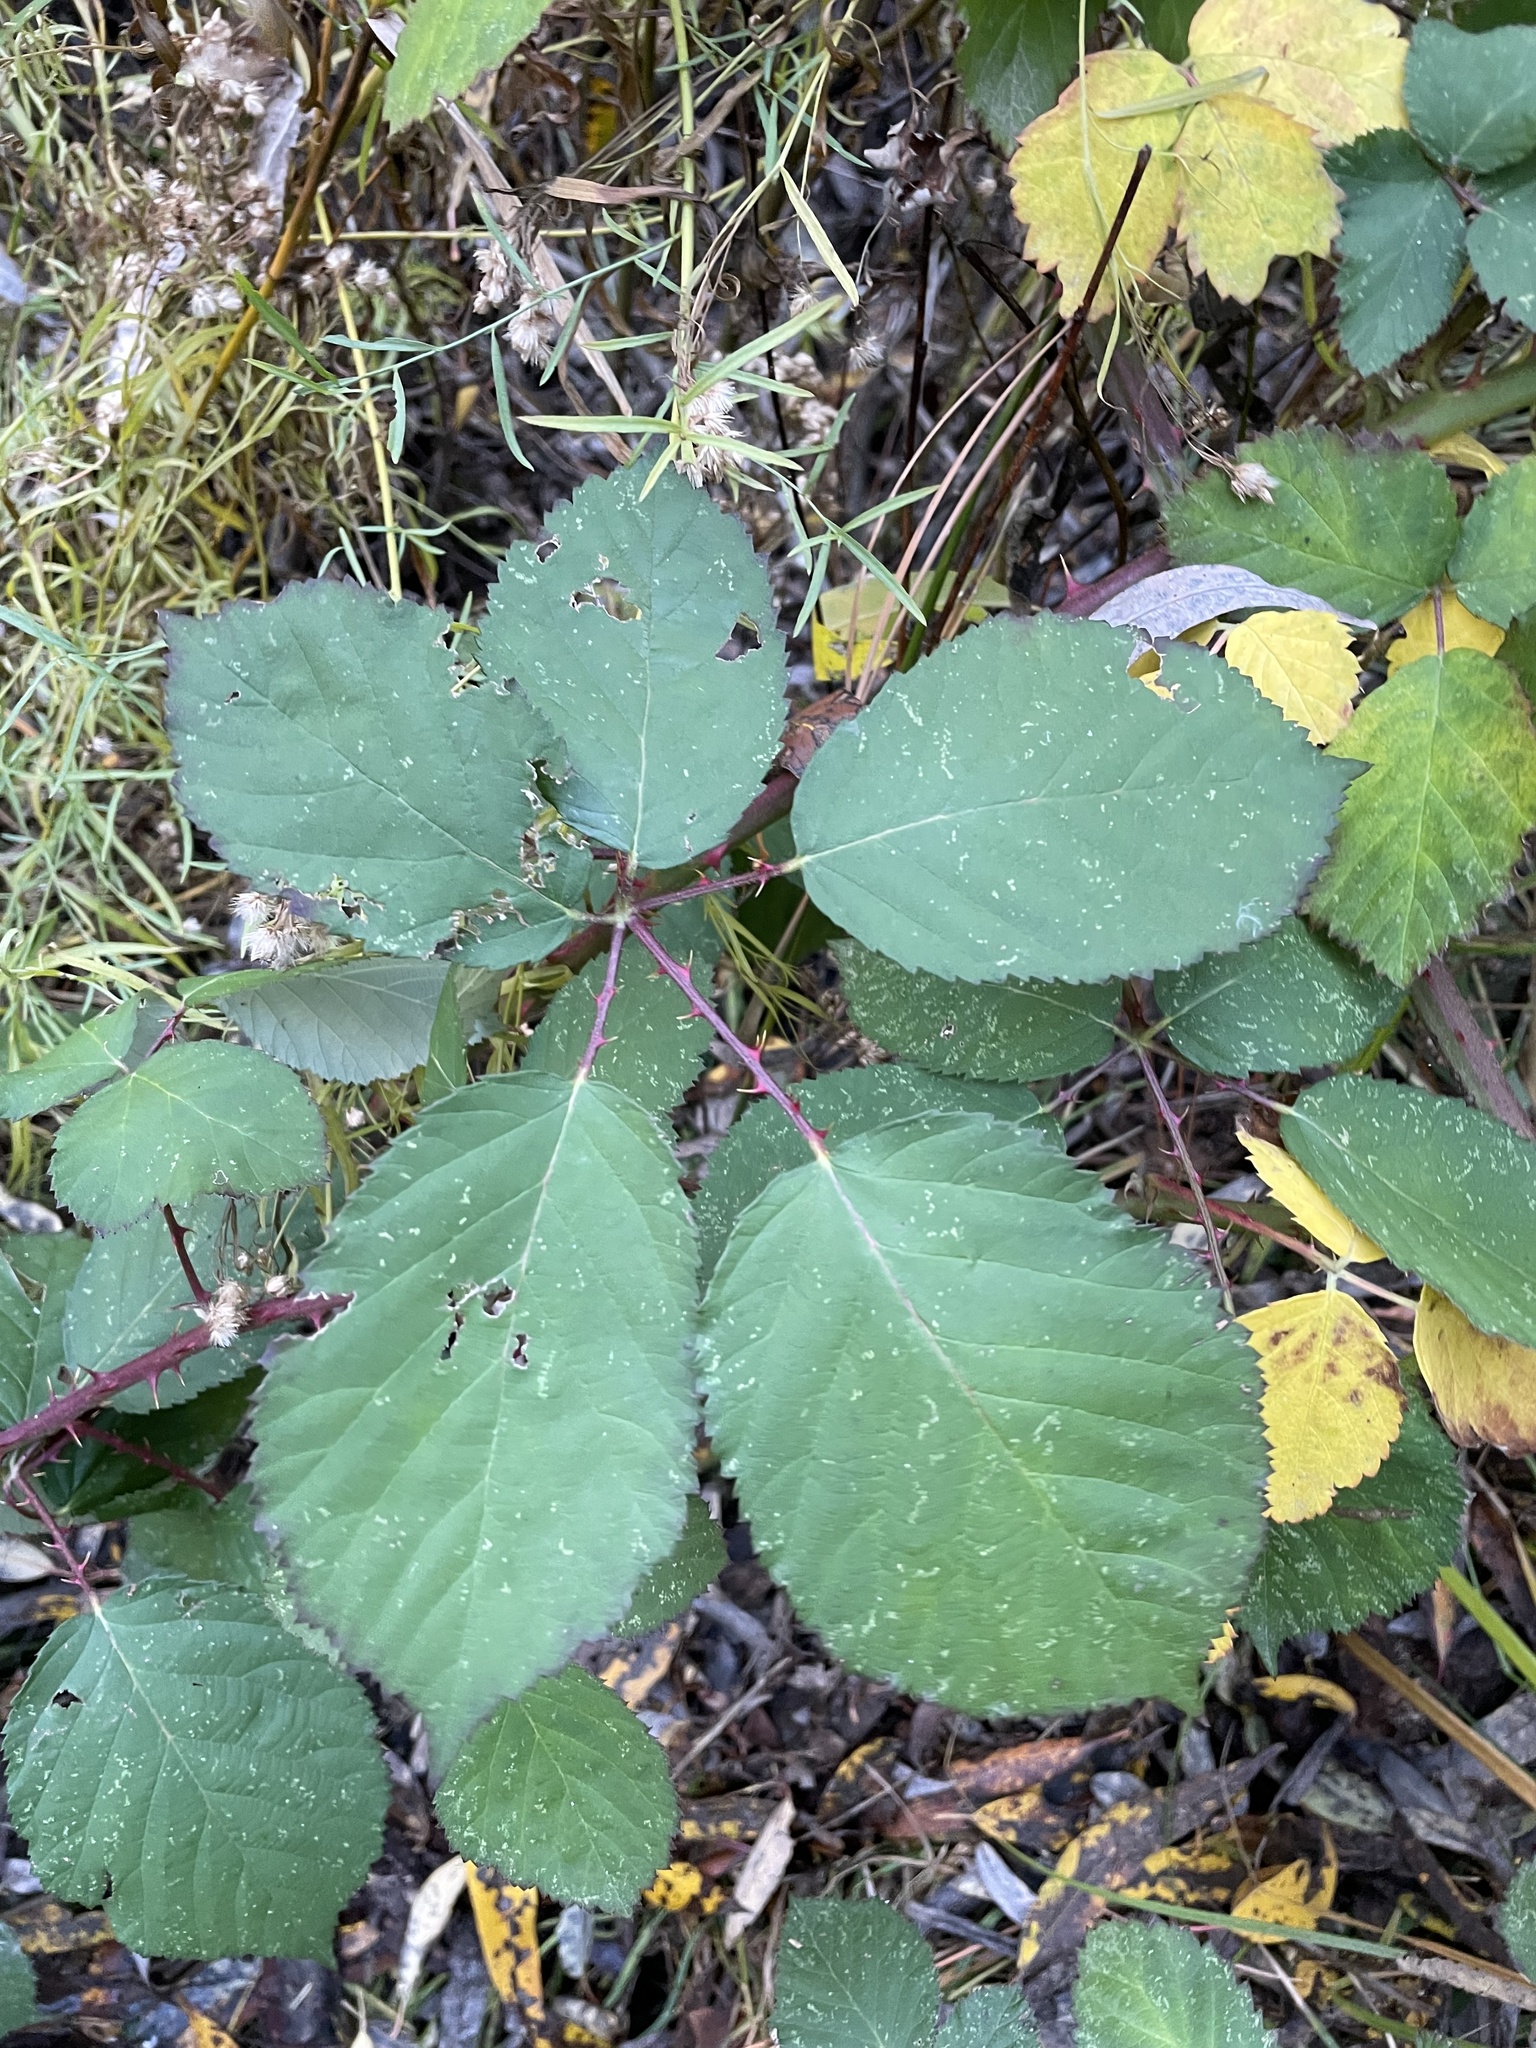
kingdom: Plantae
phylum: Tracheophyta
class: Magnoliopsida
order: Rosales
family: Rosaceae
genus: Rubus
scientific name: Rubus armeniacus
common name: Himalayan blackberry
